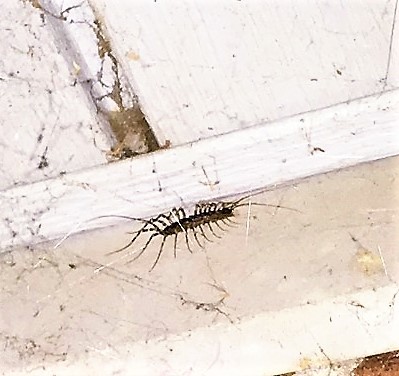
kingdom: Animalia
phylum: Arthropoda
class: Chilopoda
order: Scutigeromorpha
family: Scutigeridae
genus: Scutigera
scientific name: Scutigera coleoptrata
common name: House centipede
